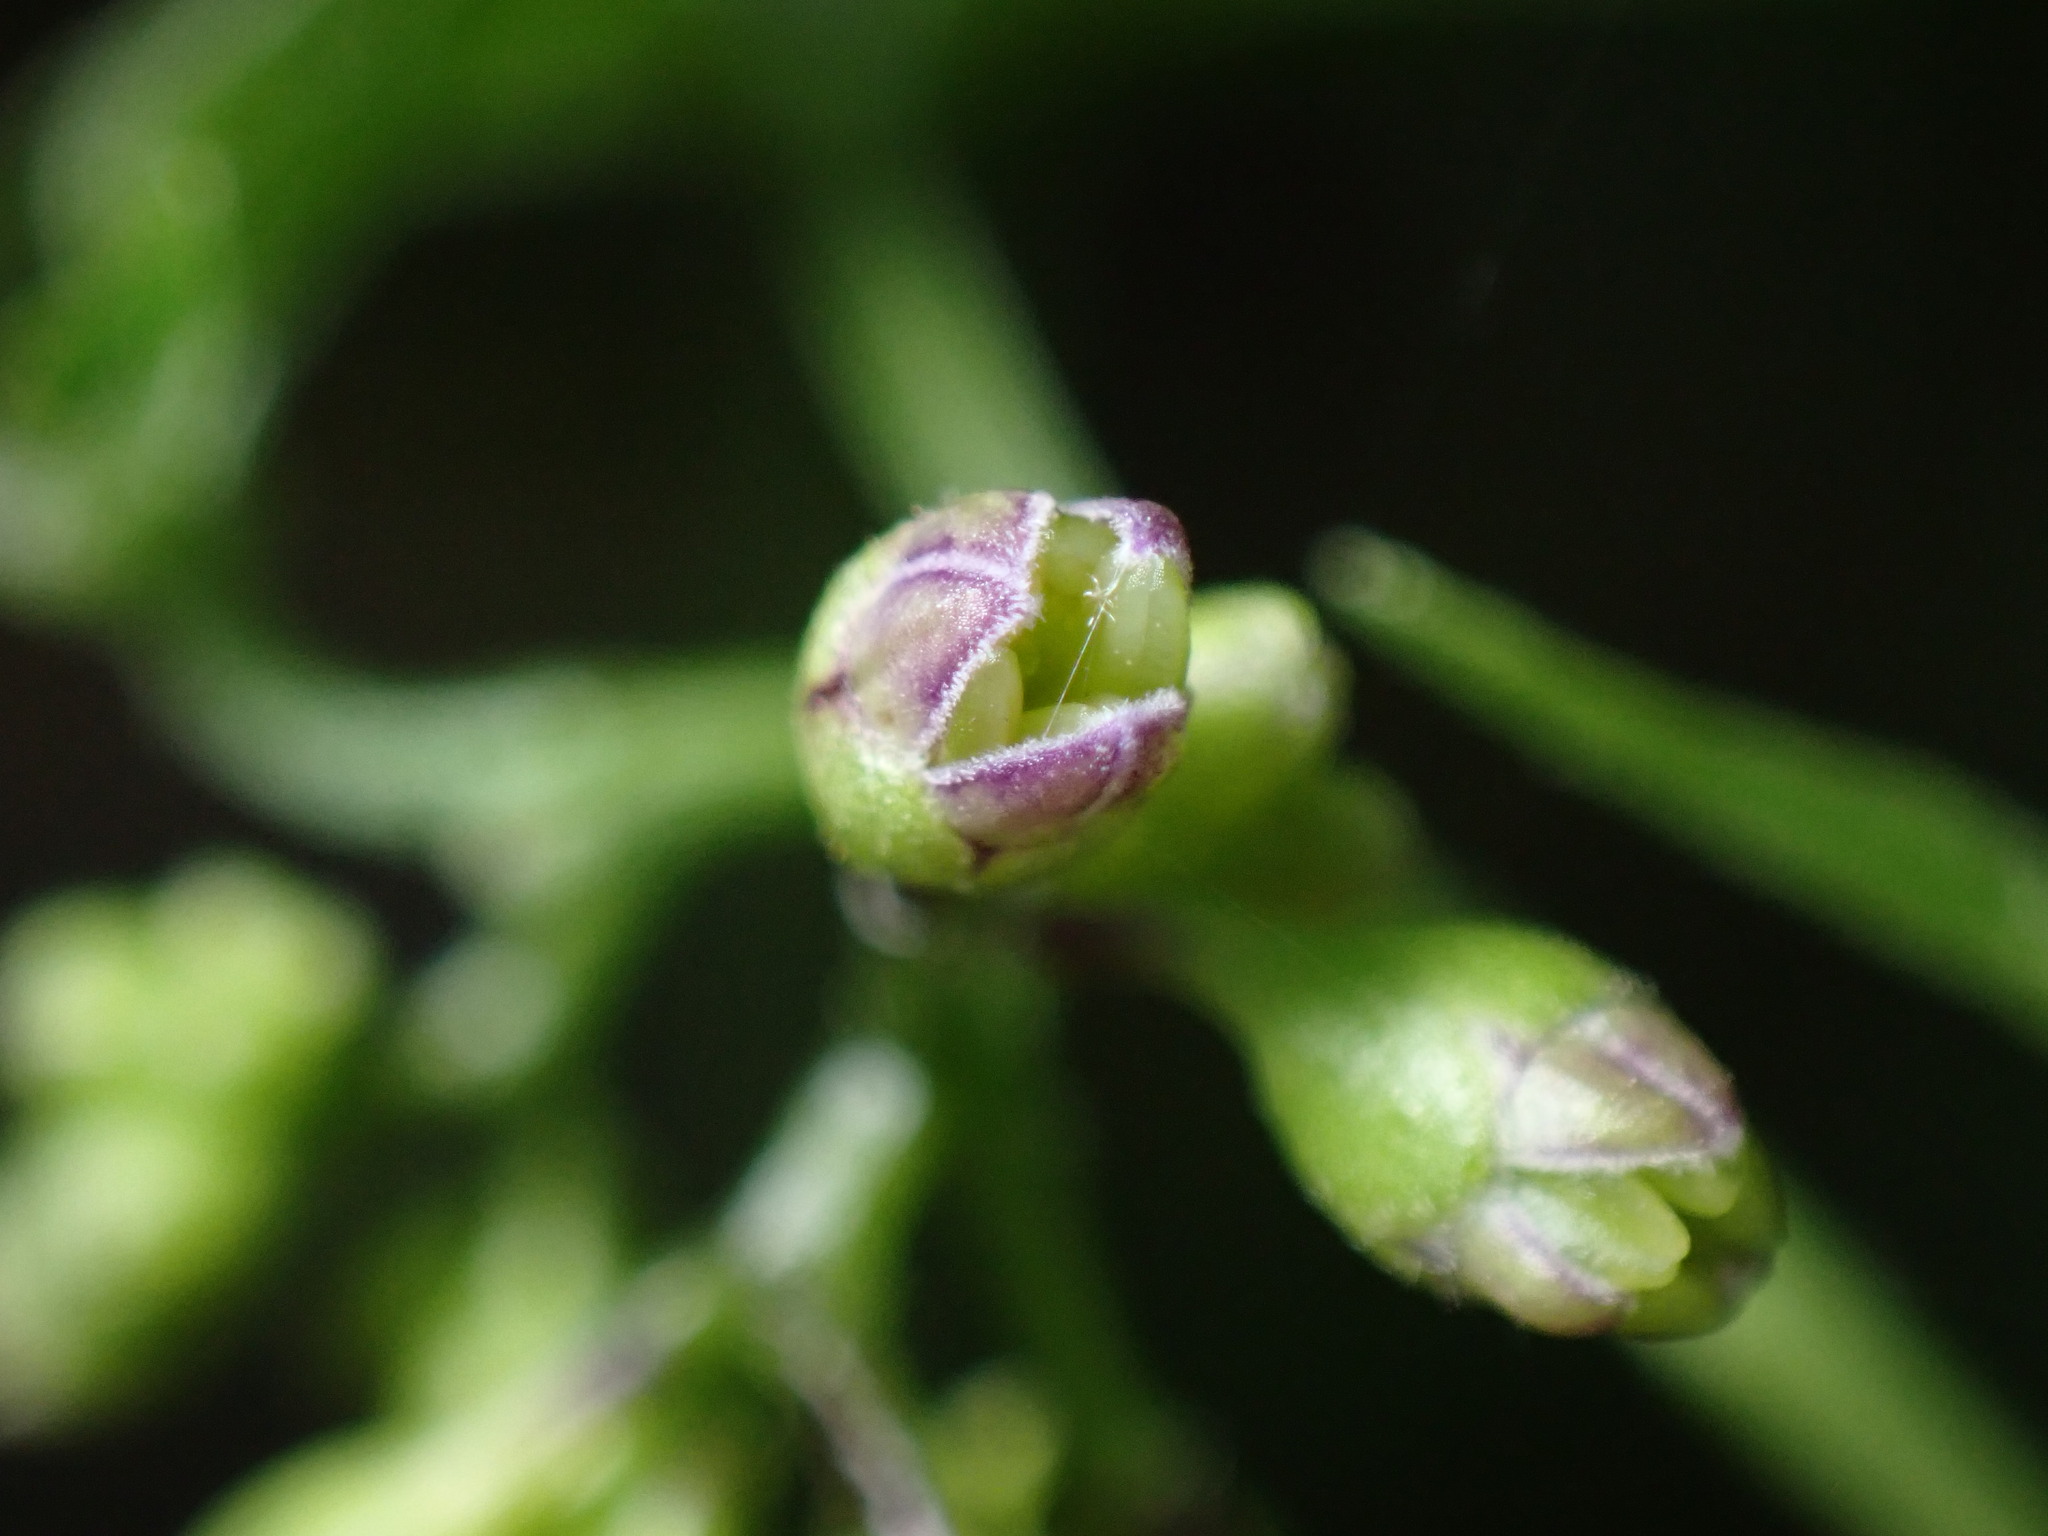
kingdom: Plantae
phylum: Tracheophyta
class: Magnoliopsida
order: Solanales
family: Solanaceae
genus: Solanum
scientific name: Solanum dulcamara
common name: Climbing nightshade
